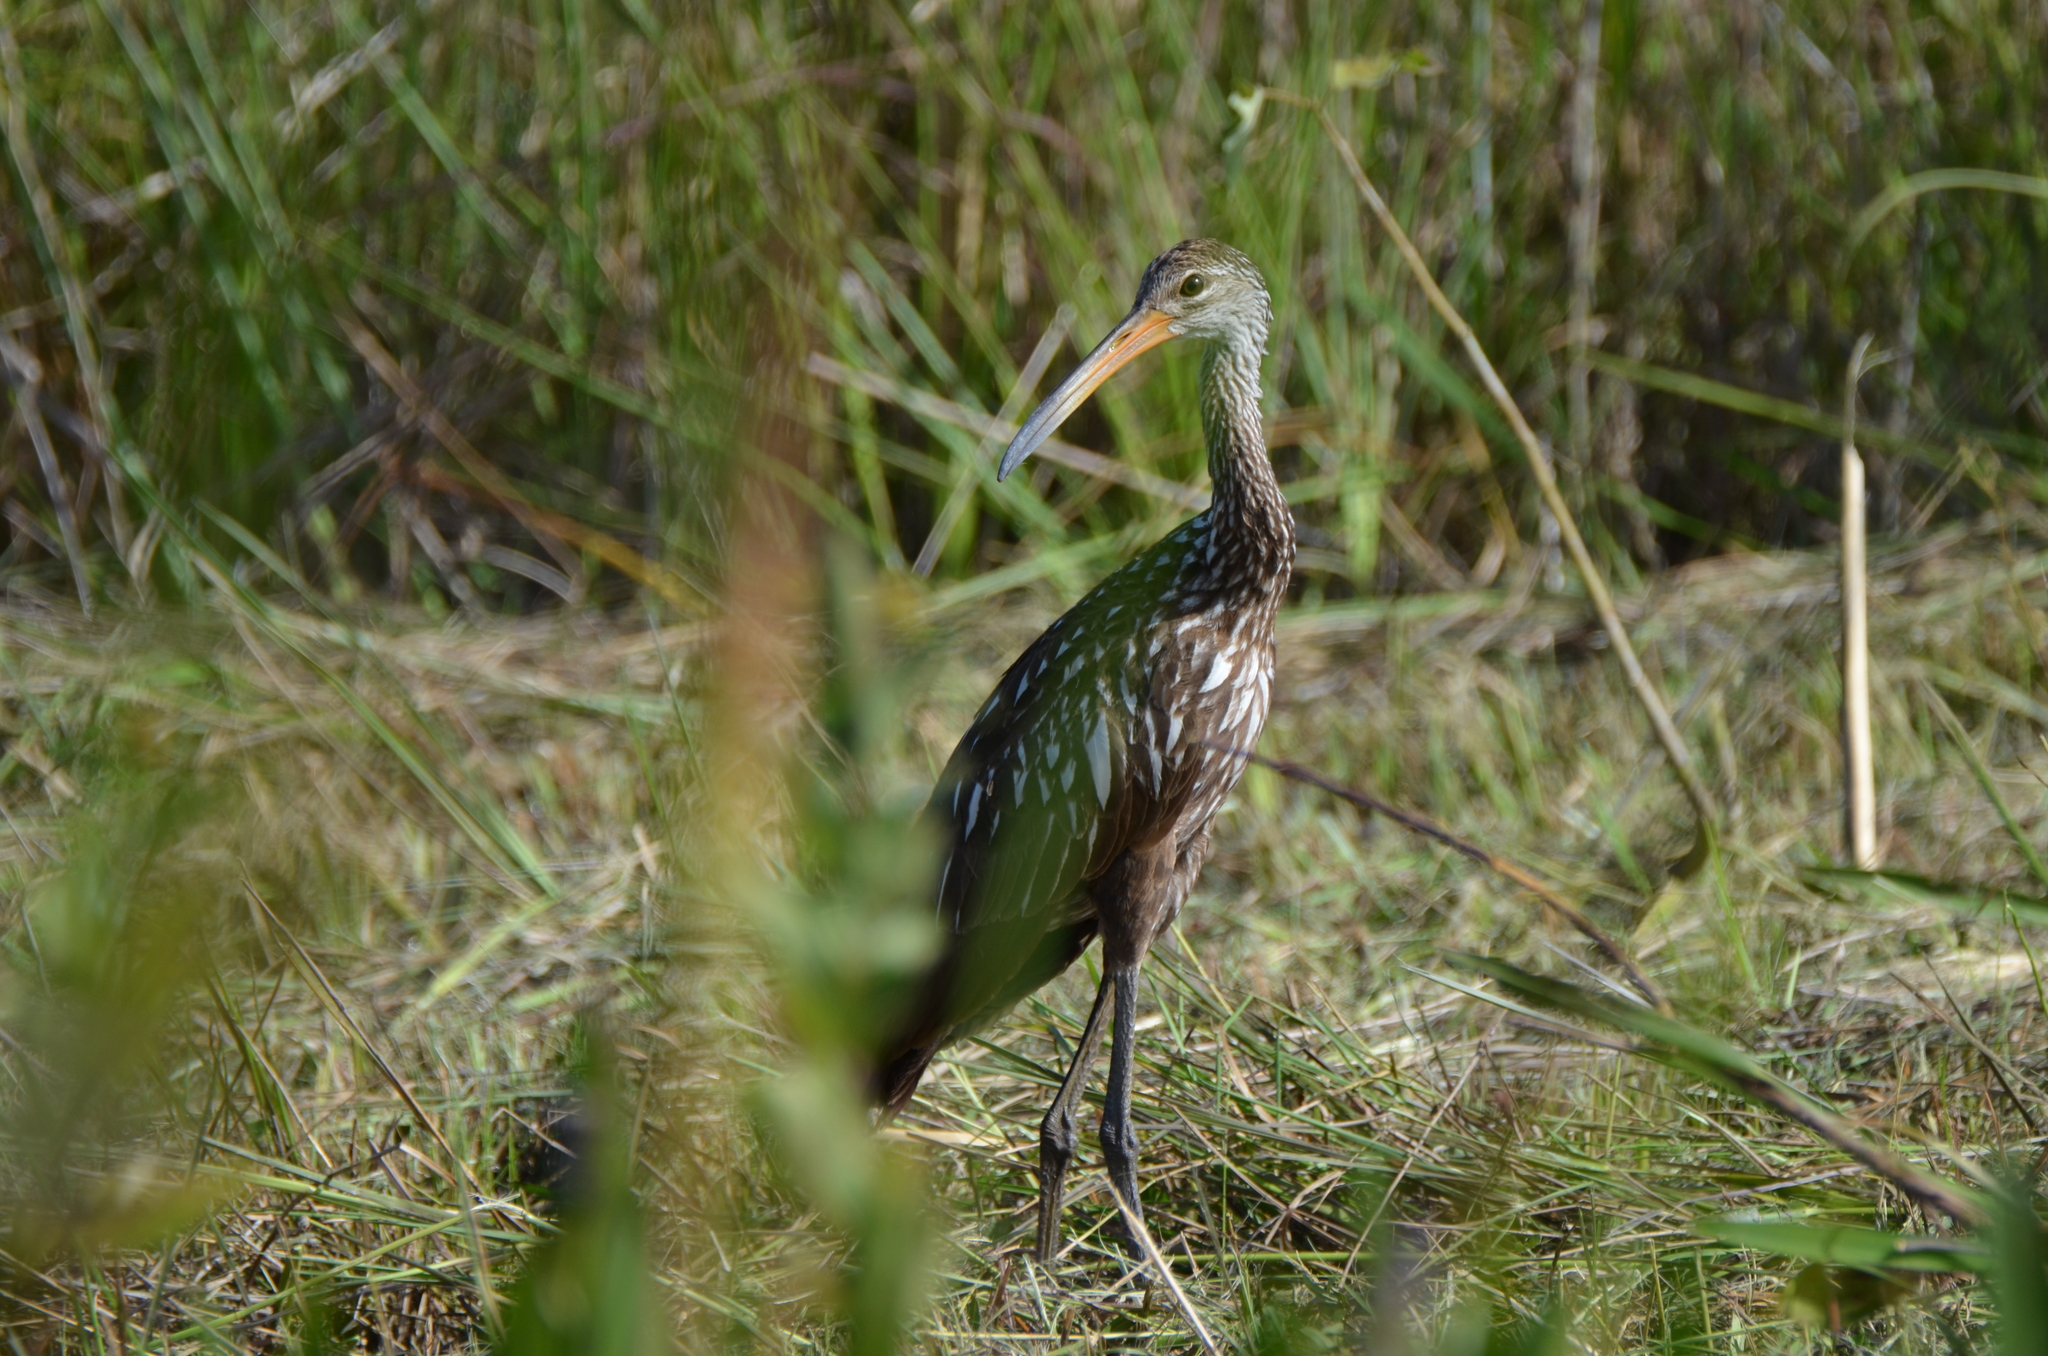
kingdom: Animalia
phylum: Chordata
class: Aves
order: Gruiformes
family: Aramidae
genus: Aramus
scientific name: Aramus guarauna
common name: Limpkin
